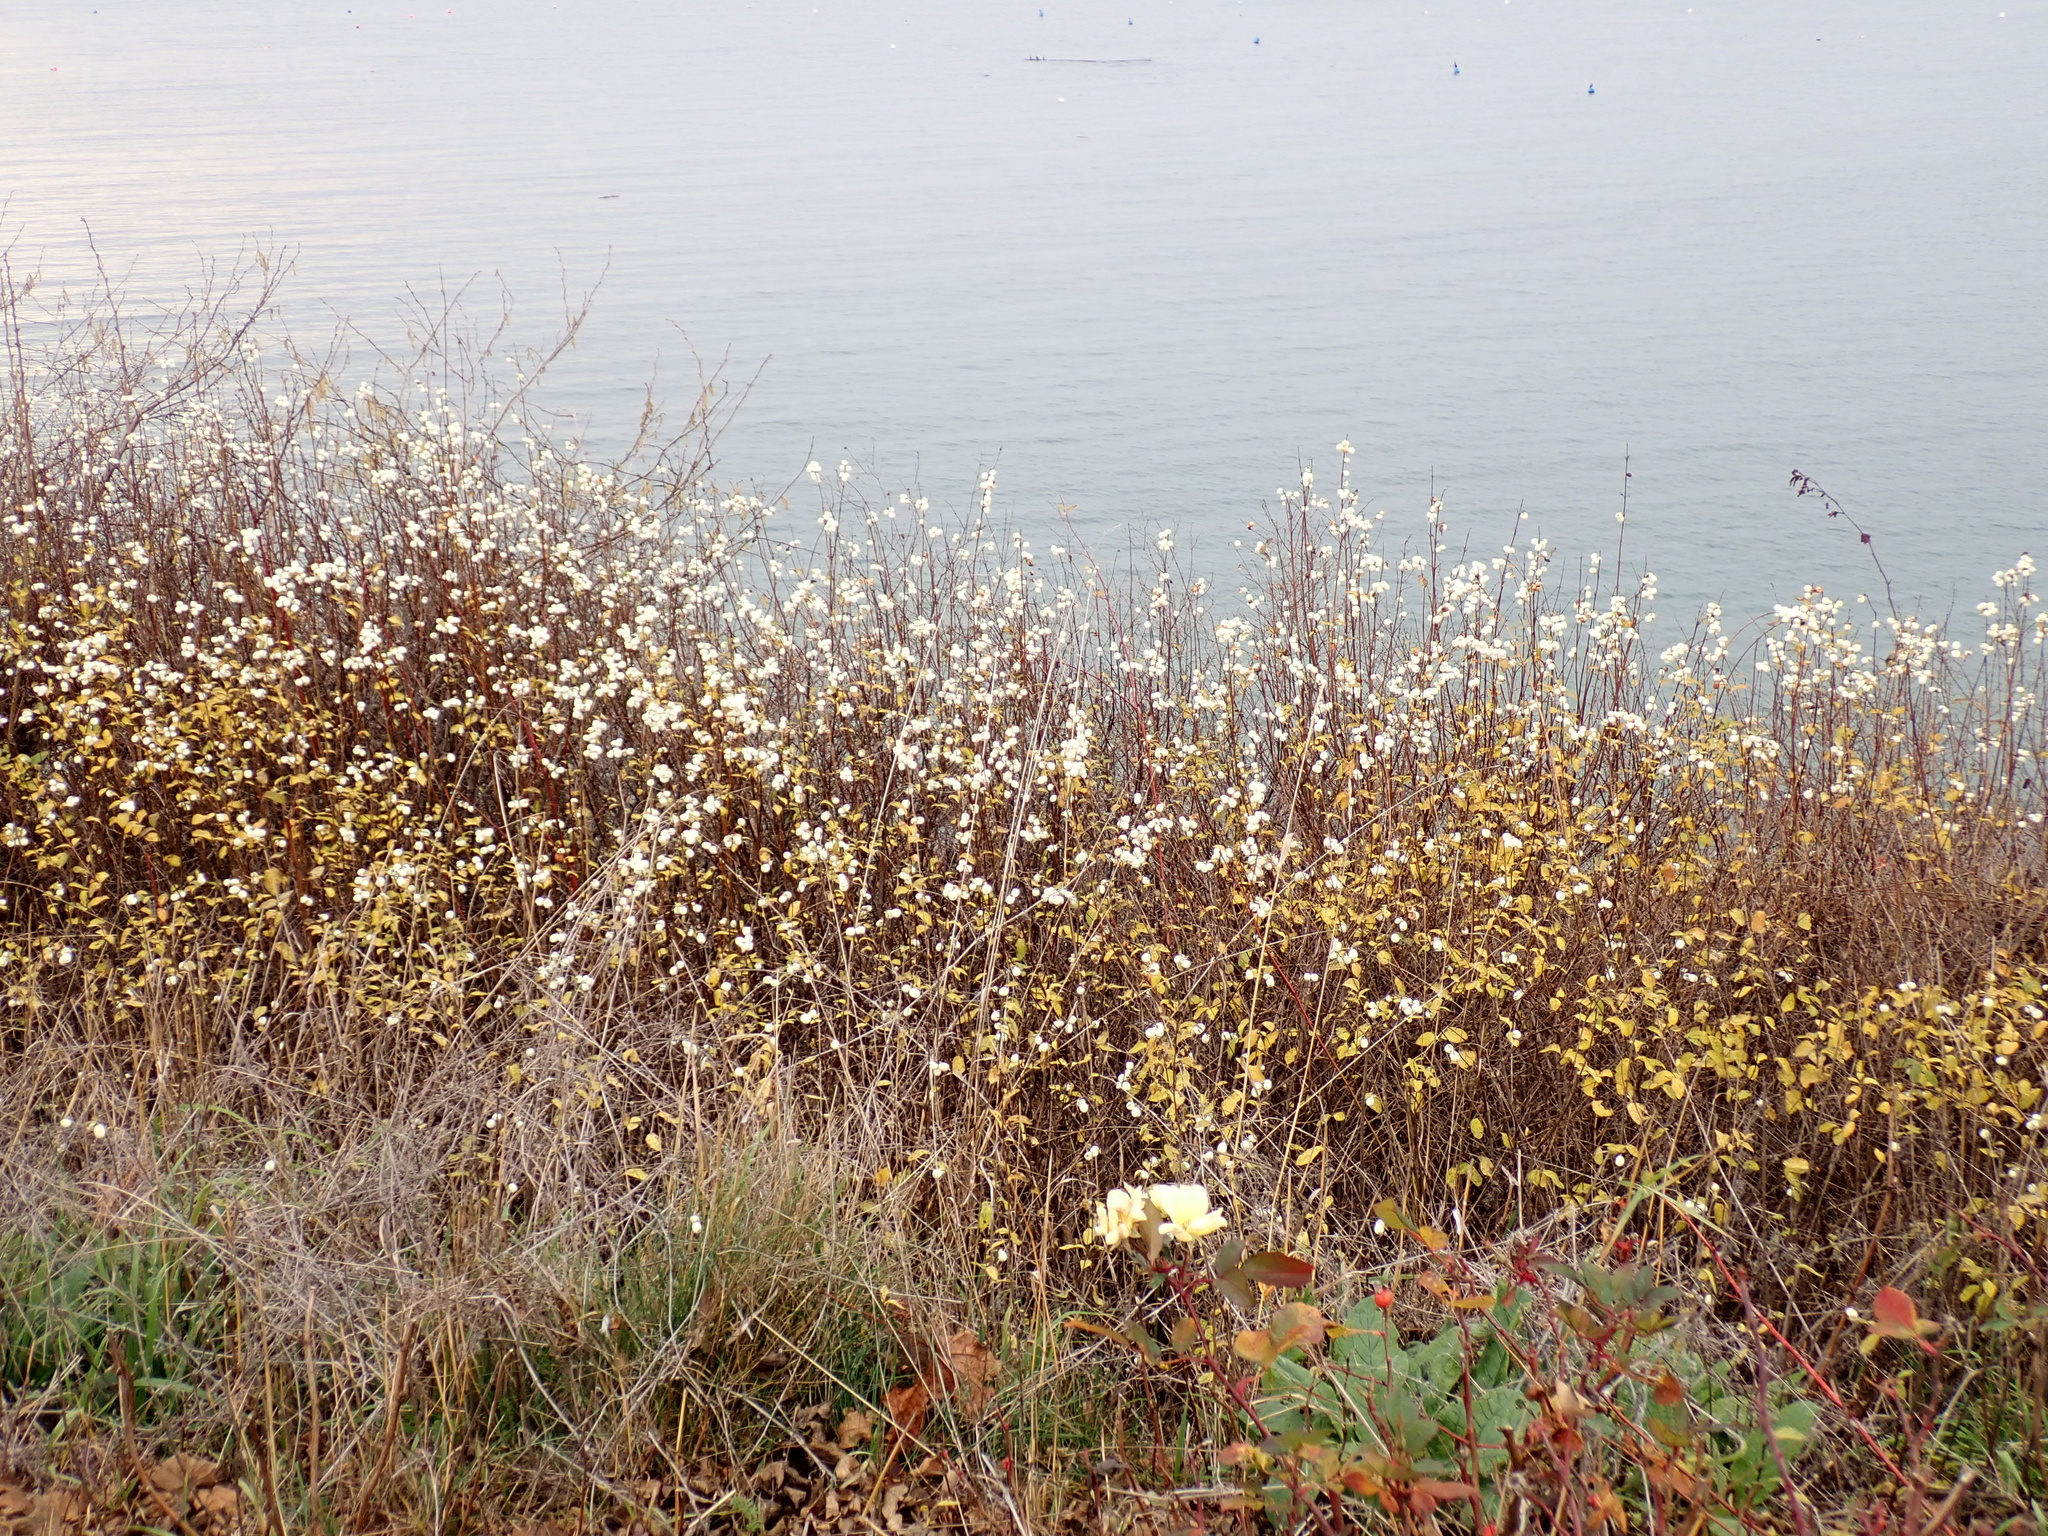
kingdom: Plantae
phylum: Tracheophyta
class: Magnoliopsida
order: Dipsacales
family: Caprifoliaceae
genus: Symphoricarpos
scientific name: Symphoricarpos albus
